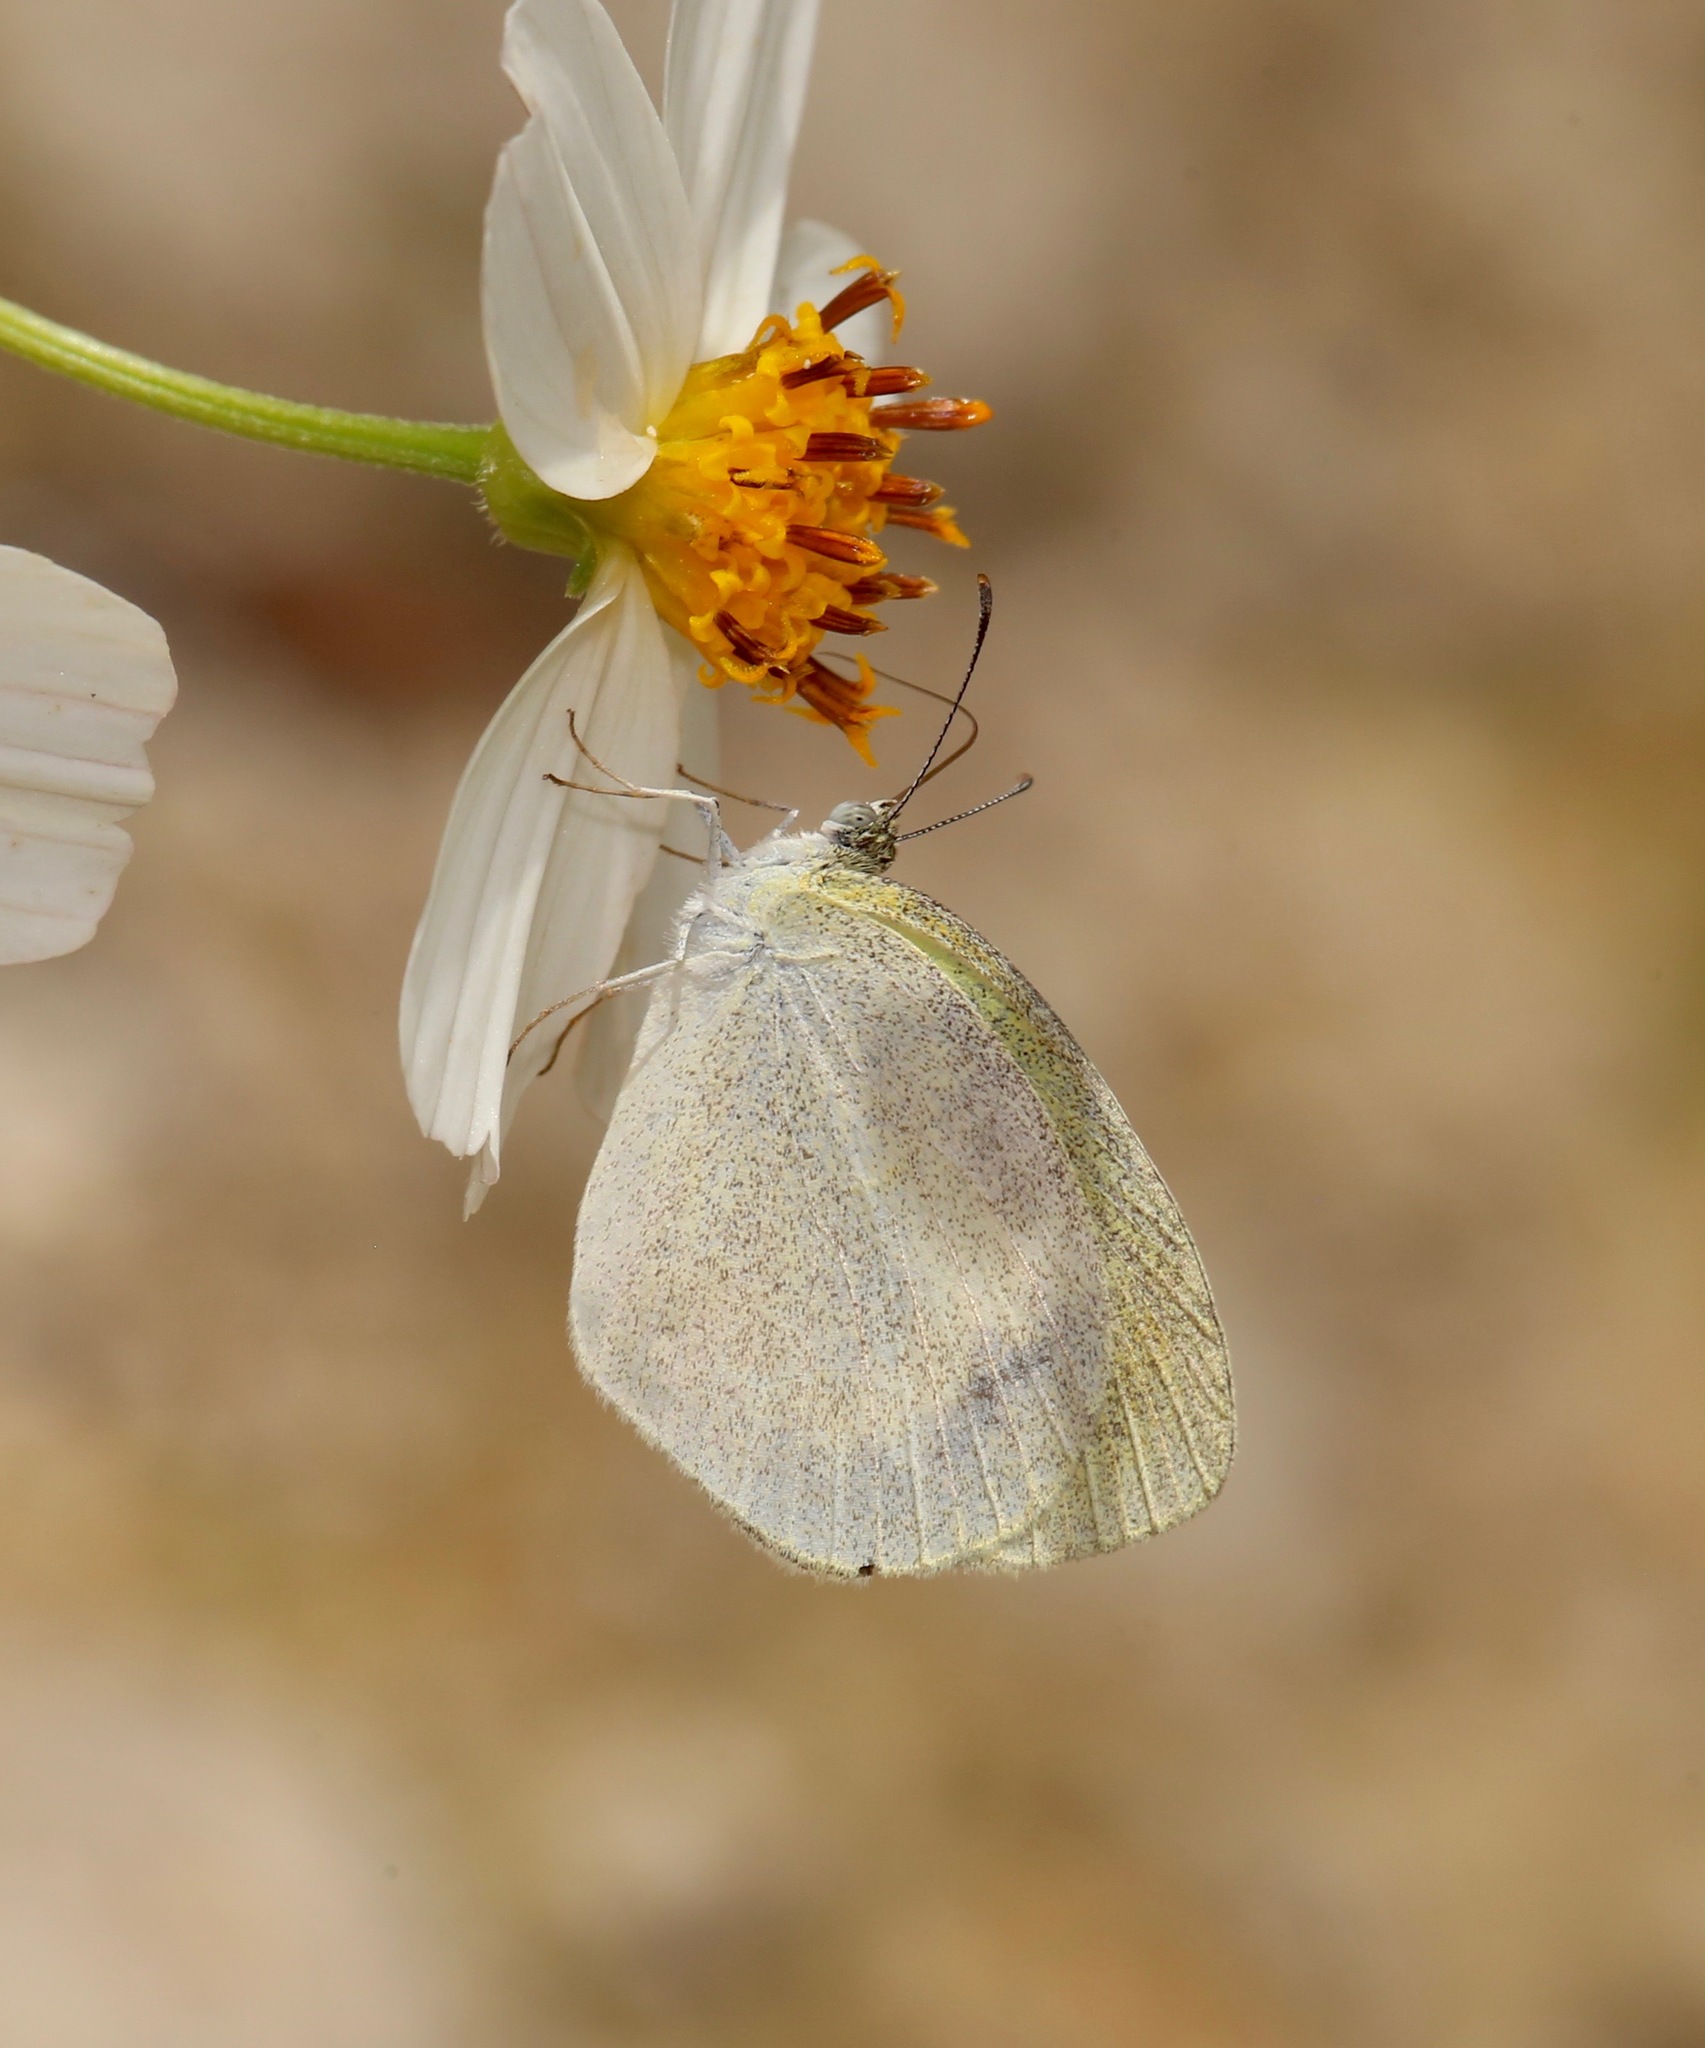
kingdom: Animalia
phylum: Arthropoda
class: Insecta
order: Lepidoptera
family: Pieridae
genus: Eurema
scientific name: Eurema daira
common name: Barred sulphur
